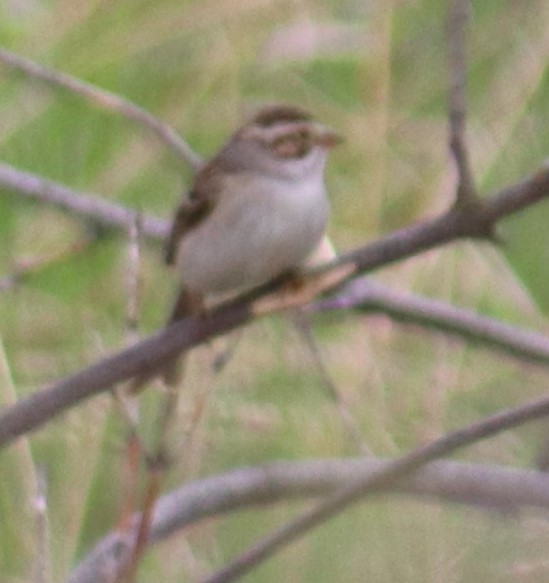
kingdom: Animalia
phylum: Chordata
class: Aves
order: Passeriformes
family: Passerellidae
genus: Spizella
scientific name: Spizella pallida
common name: Clay-colored sparrow
